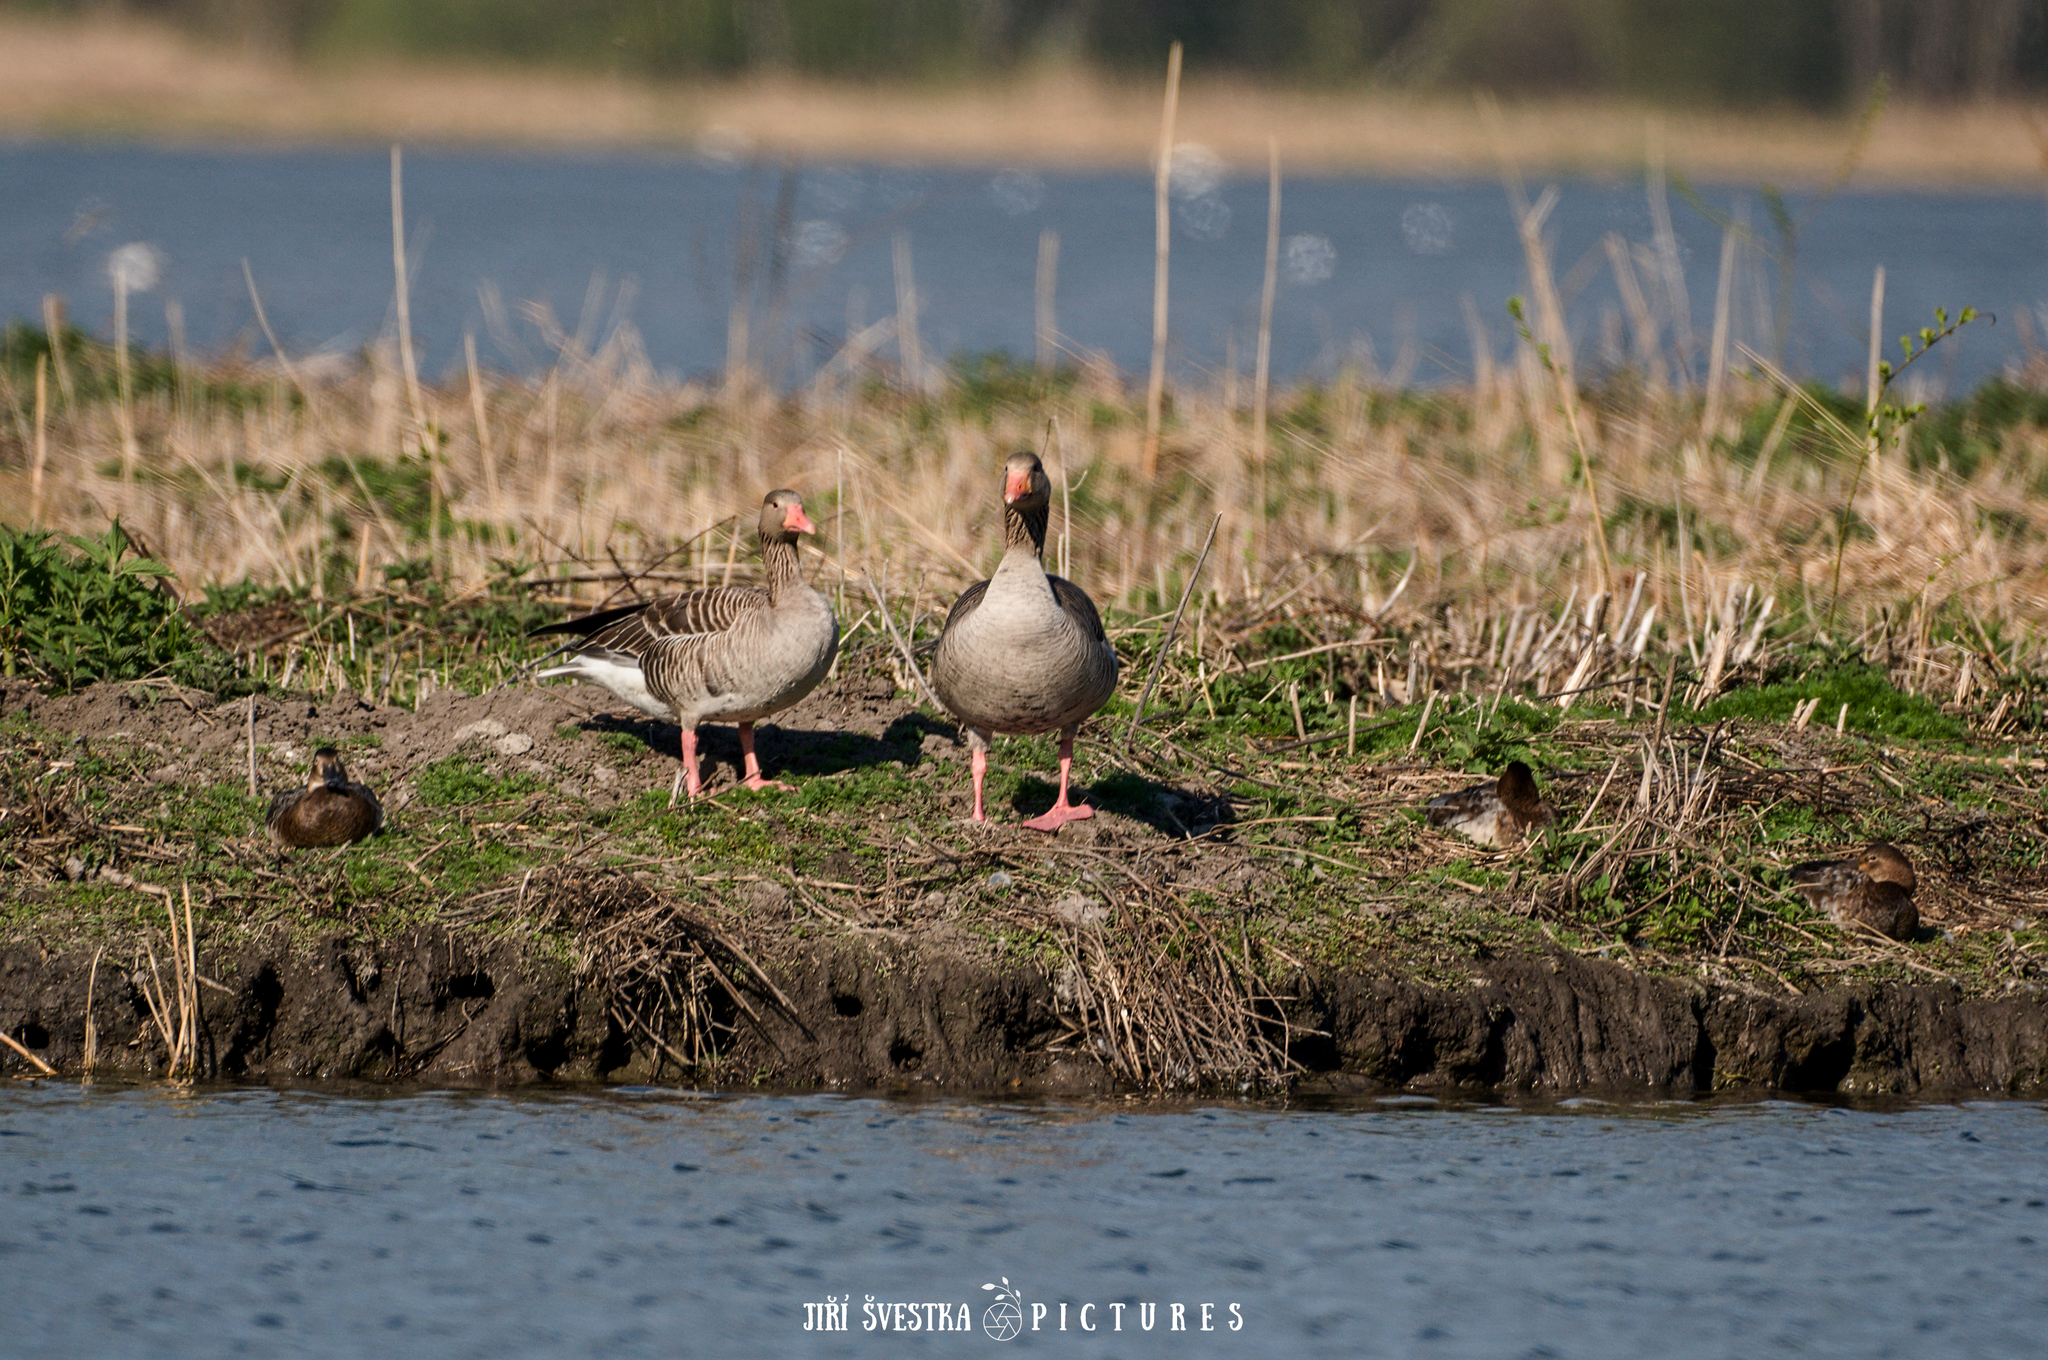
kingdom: Animalia
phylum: Chordata
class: Aves
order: Anseriformes
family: Anatidae
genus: Anser
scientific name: Anser anser
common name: Greylag goose
